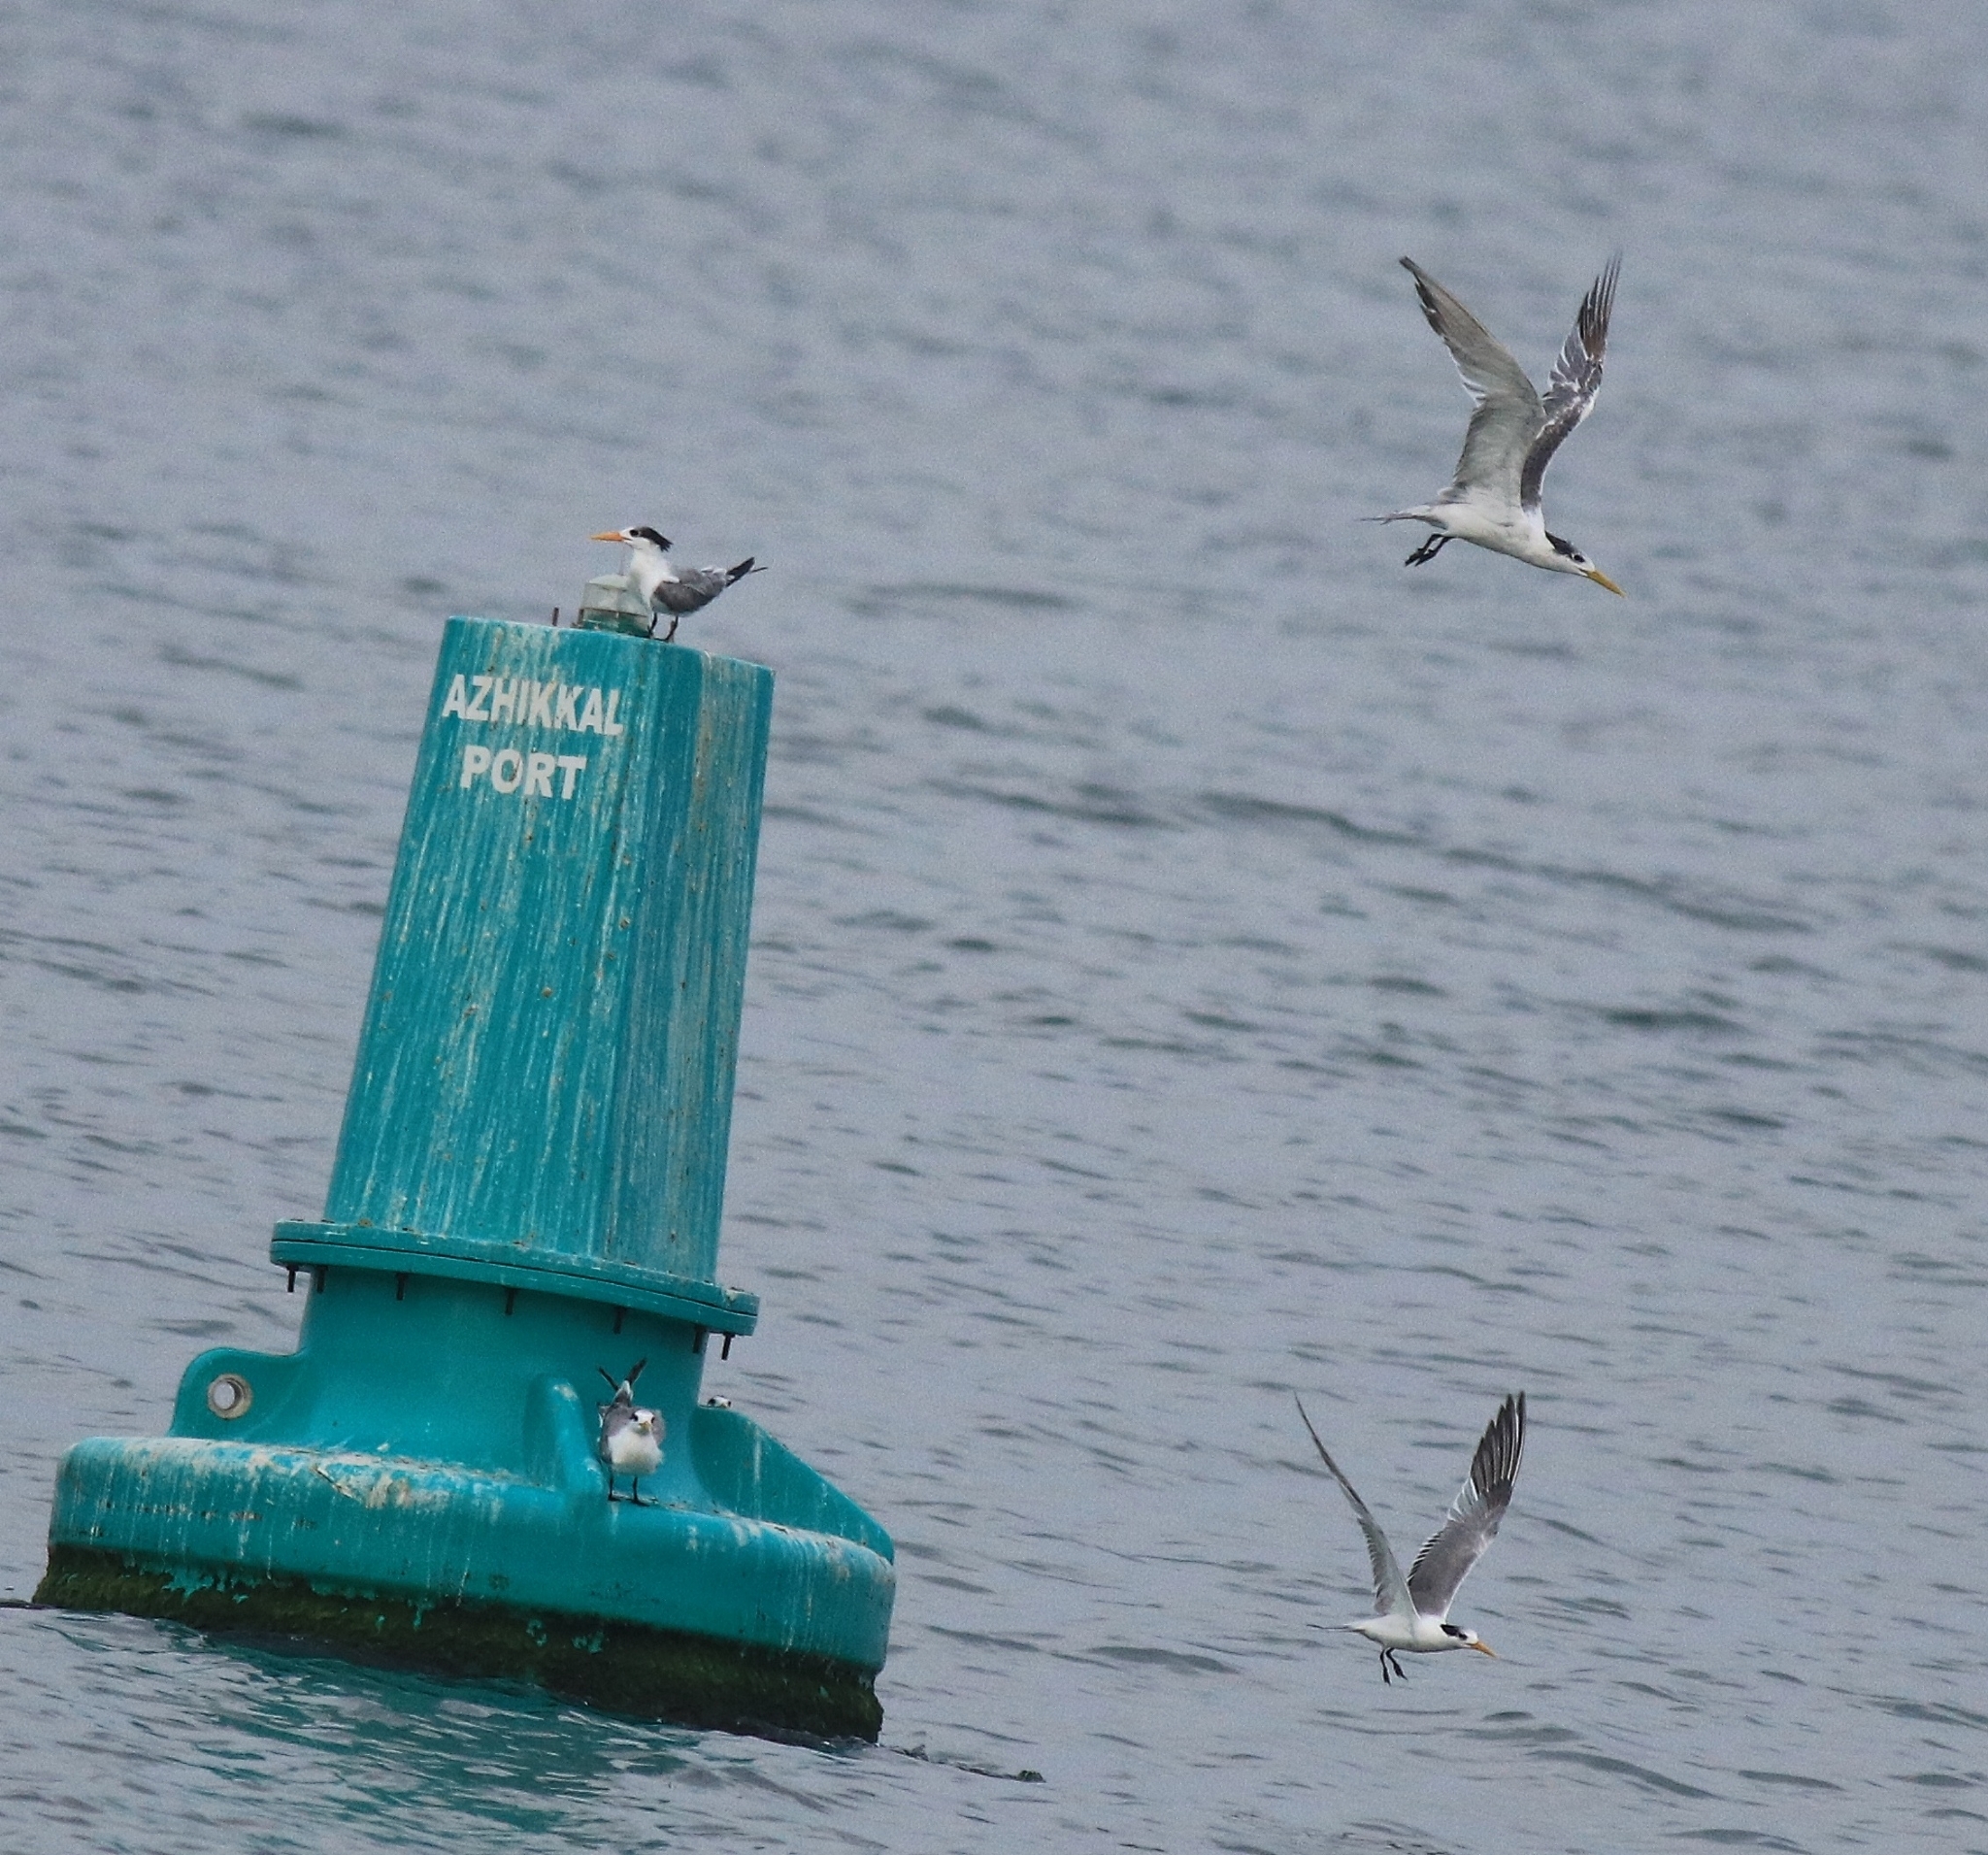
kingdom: Animalia
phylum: Chordata
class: Aves
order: Charadriiformes
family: Laridae
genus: Thalasseus
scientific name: Thalasseus bengalensis
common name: Lesser crested tern
